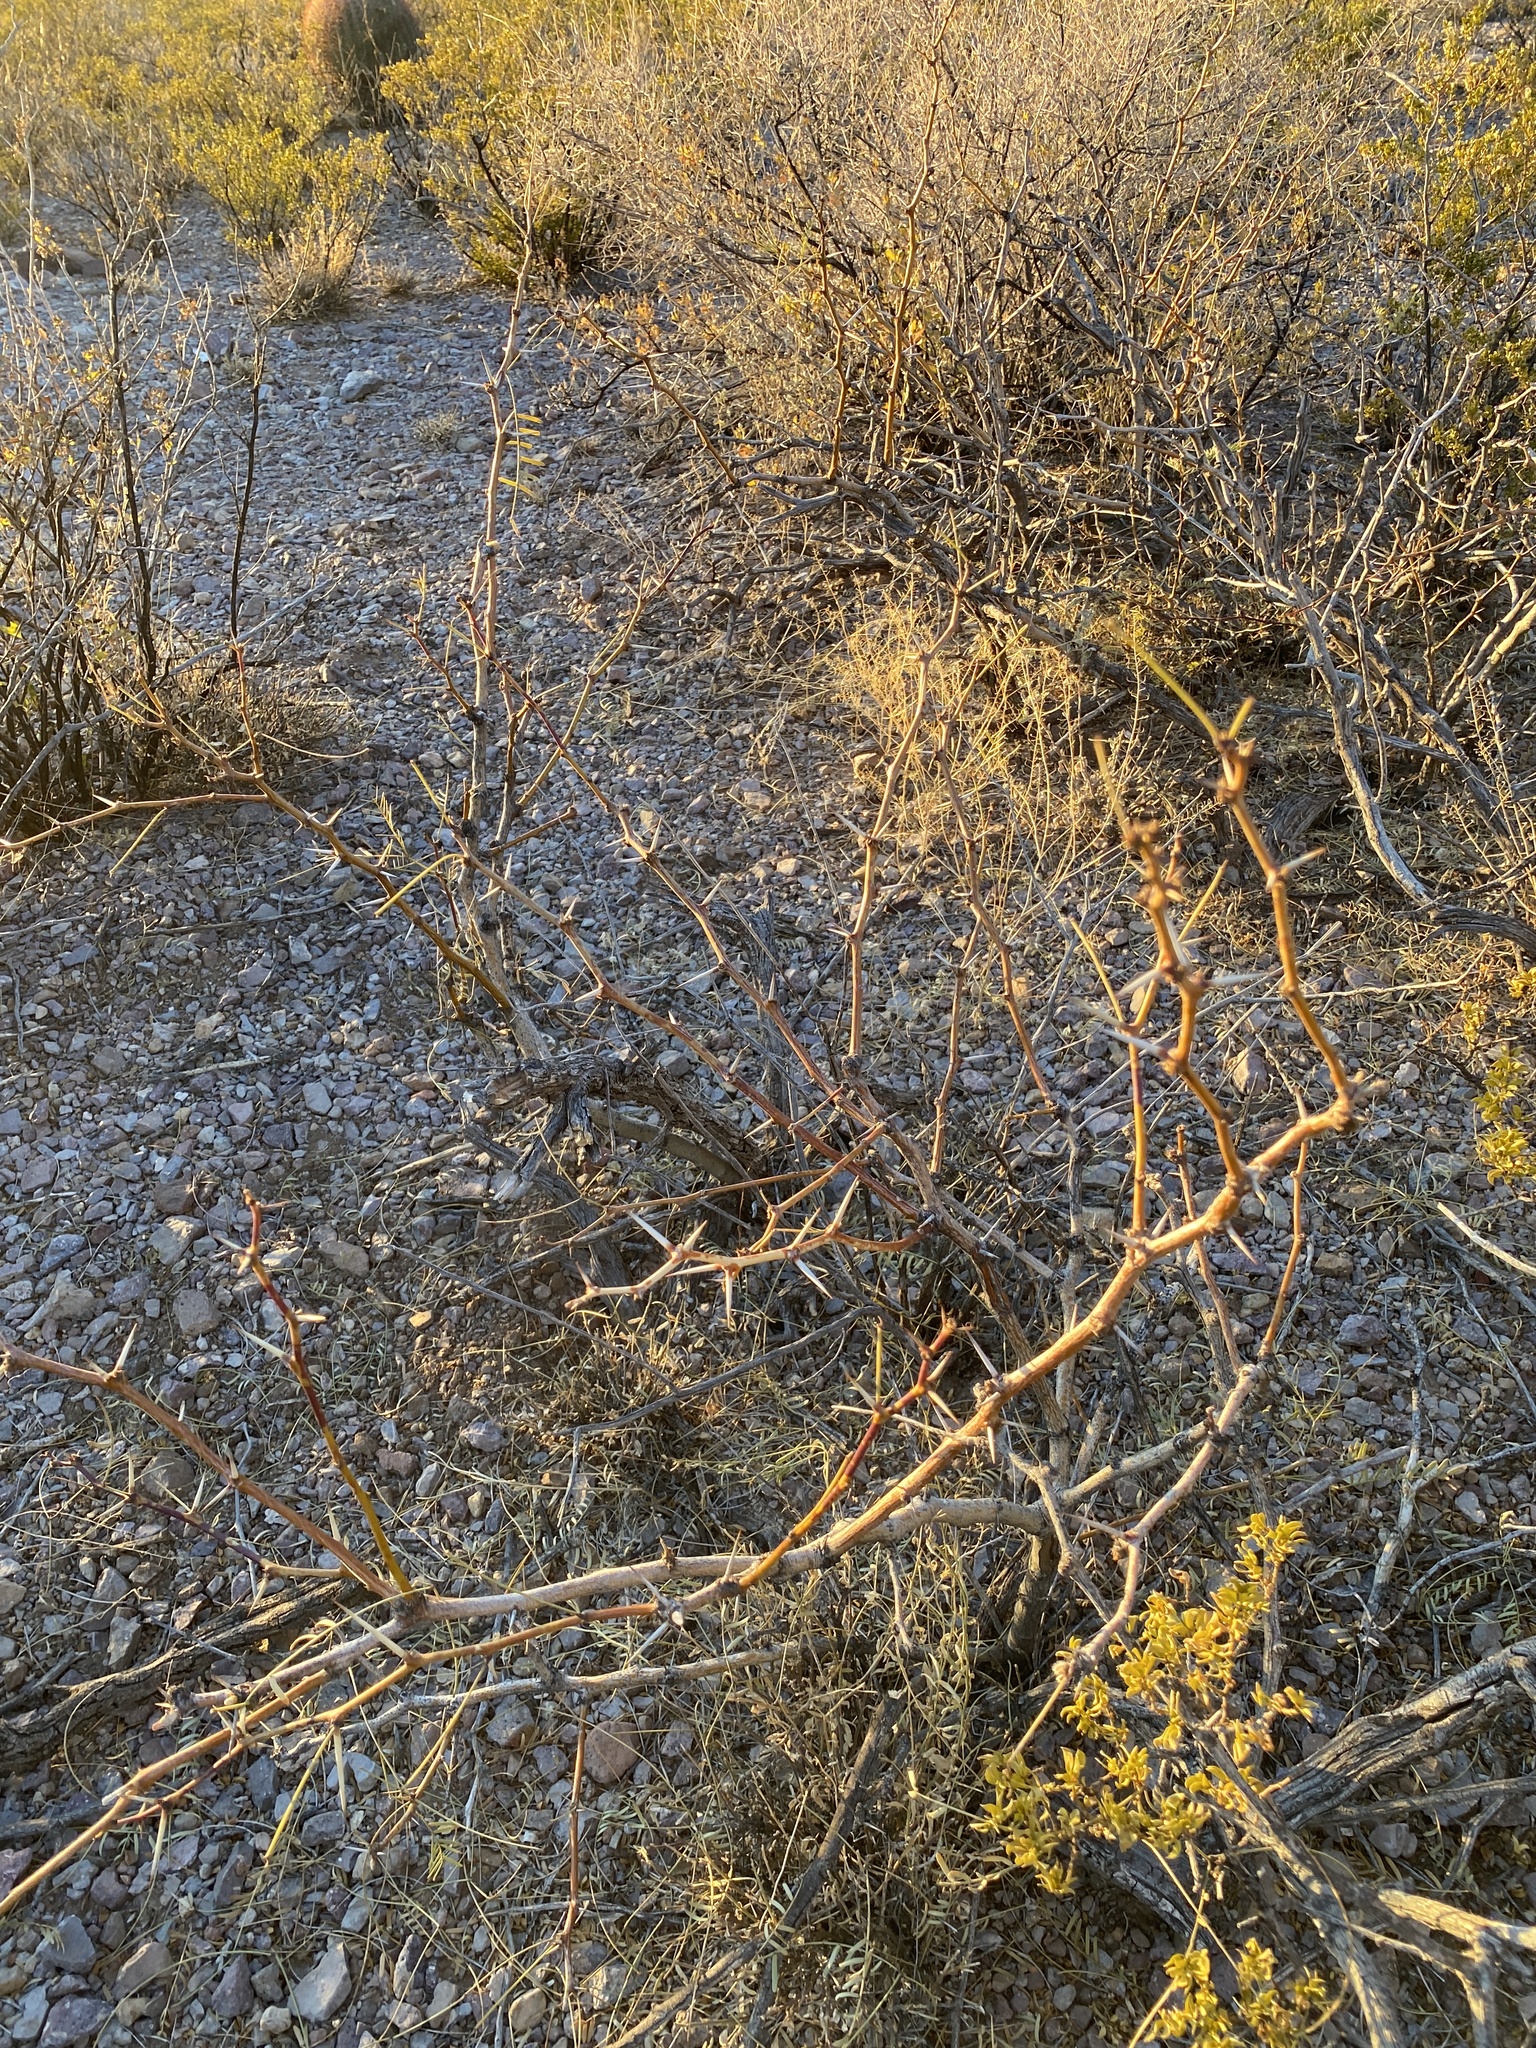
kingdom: Plantae
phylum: Tracheophyta
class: Magnoliopsida
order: Fabales
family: Fabaceae
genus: Prosopis
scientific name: Prosopis glandulosa
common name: Honey mesquite
